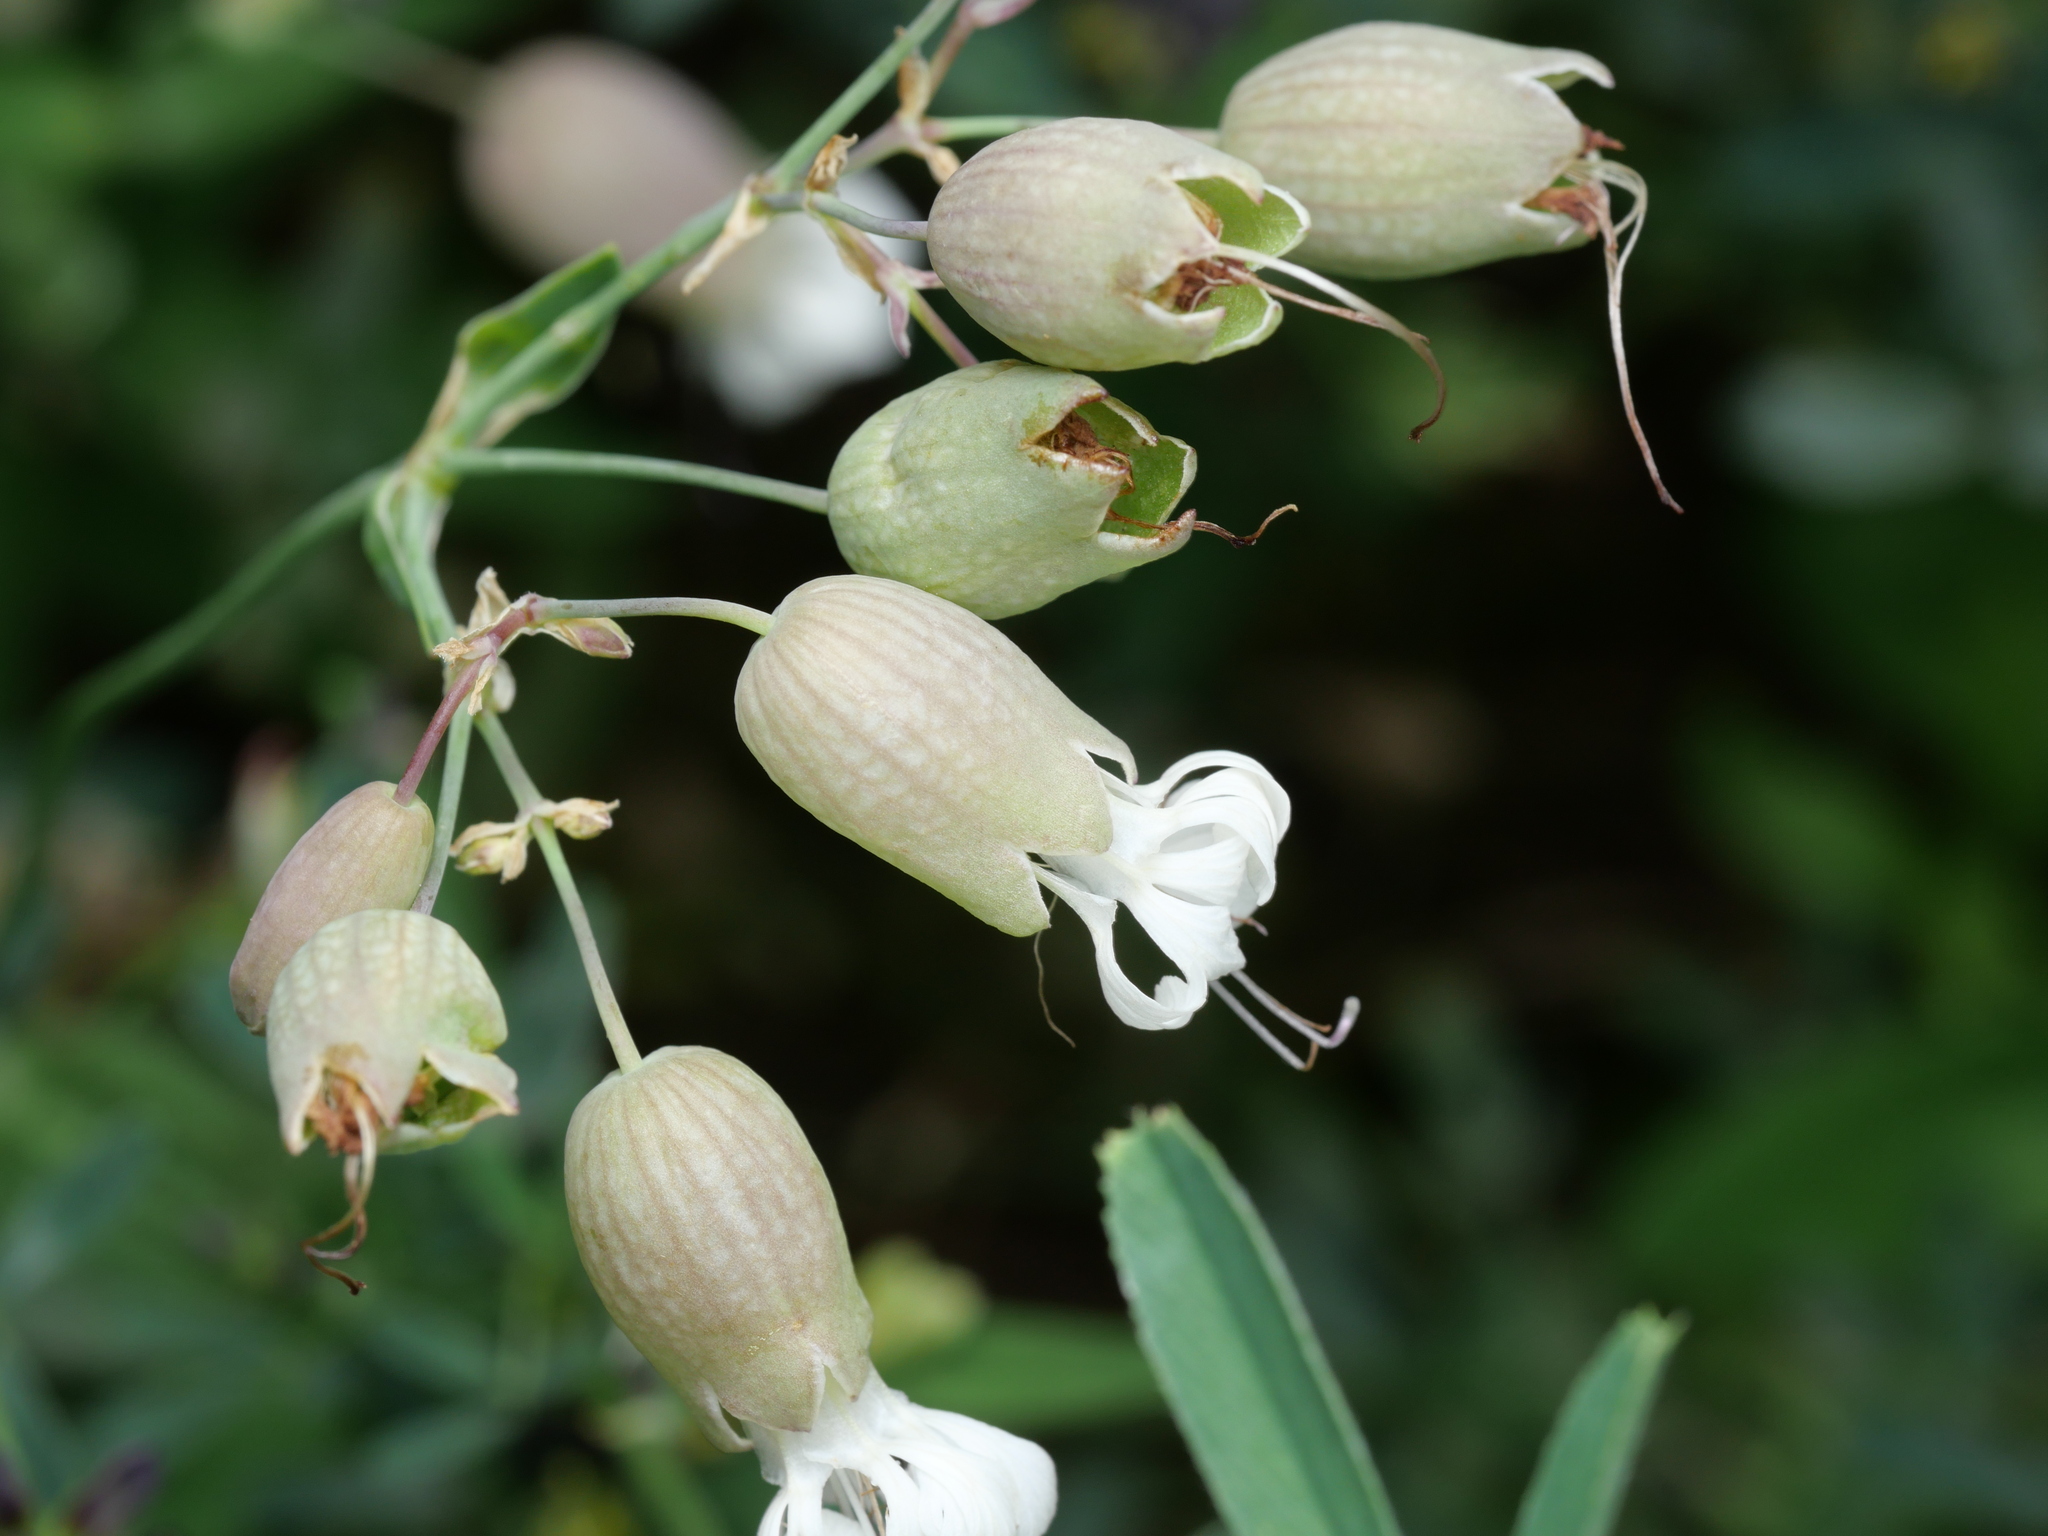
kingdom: Plantae
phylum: Tracheophyta
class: Magnoliopsida
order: Caryophyllales
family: Caryophyllaceae
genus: Silene
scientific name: Silene vulgaris
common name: Bladder campion
